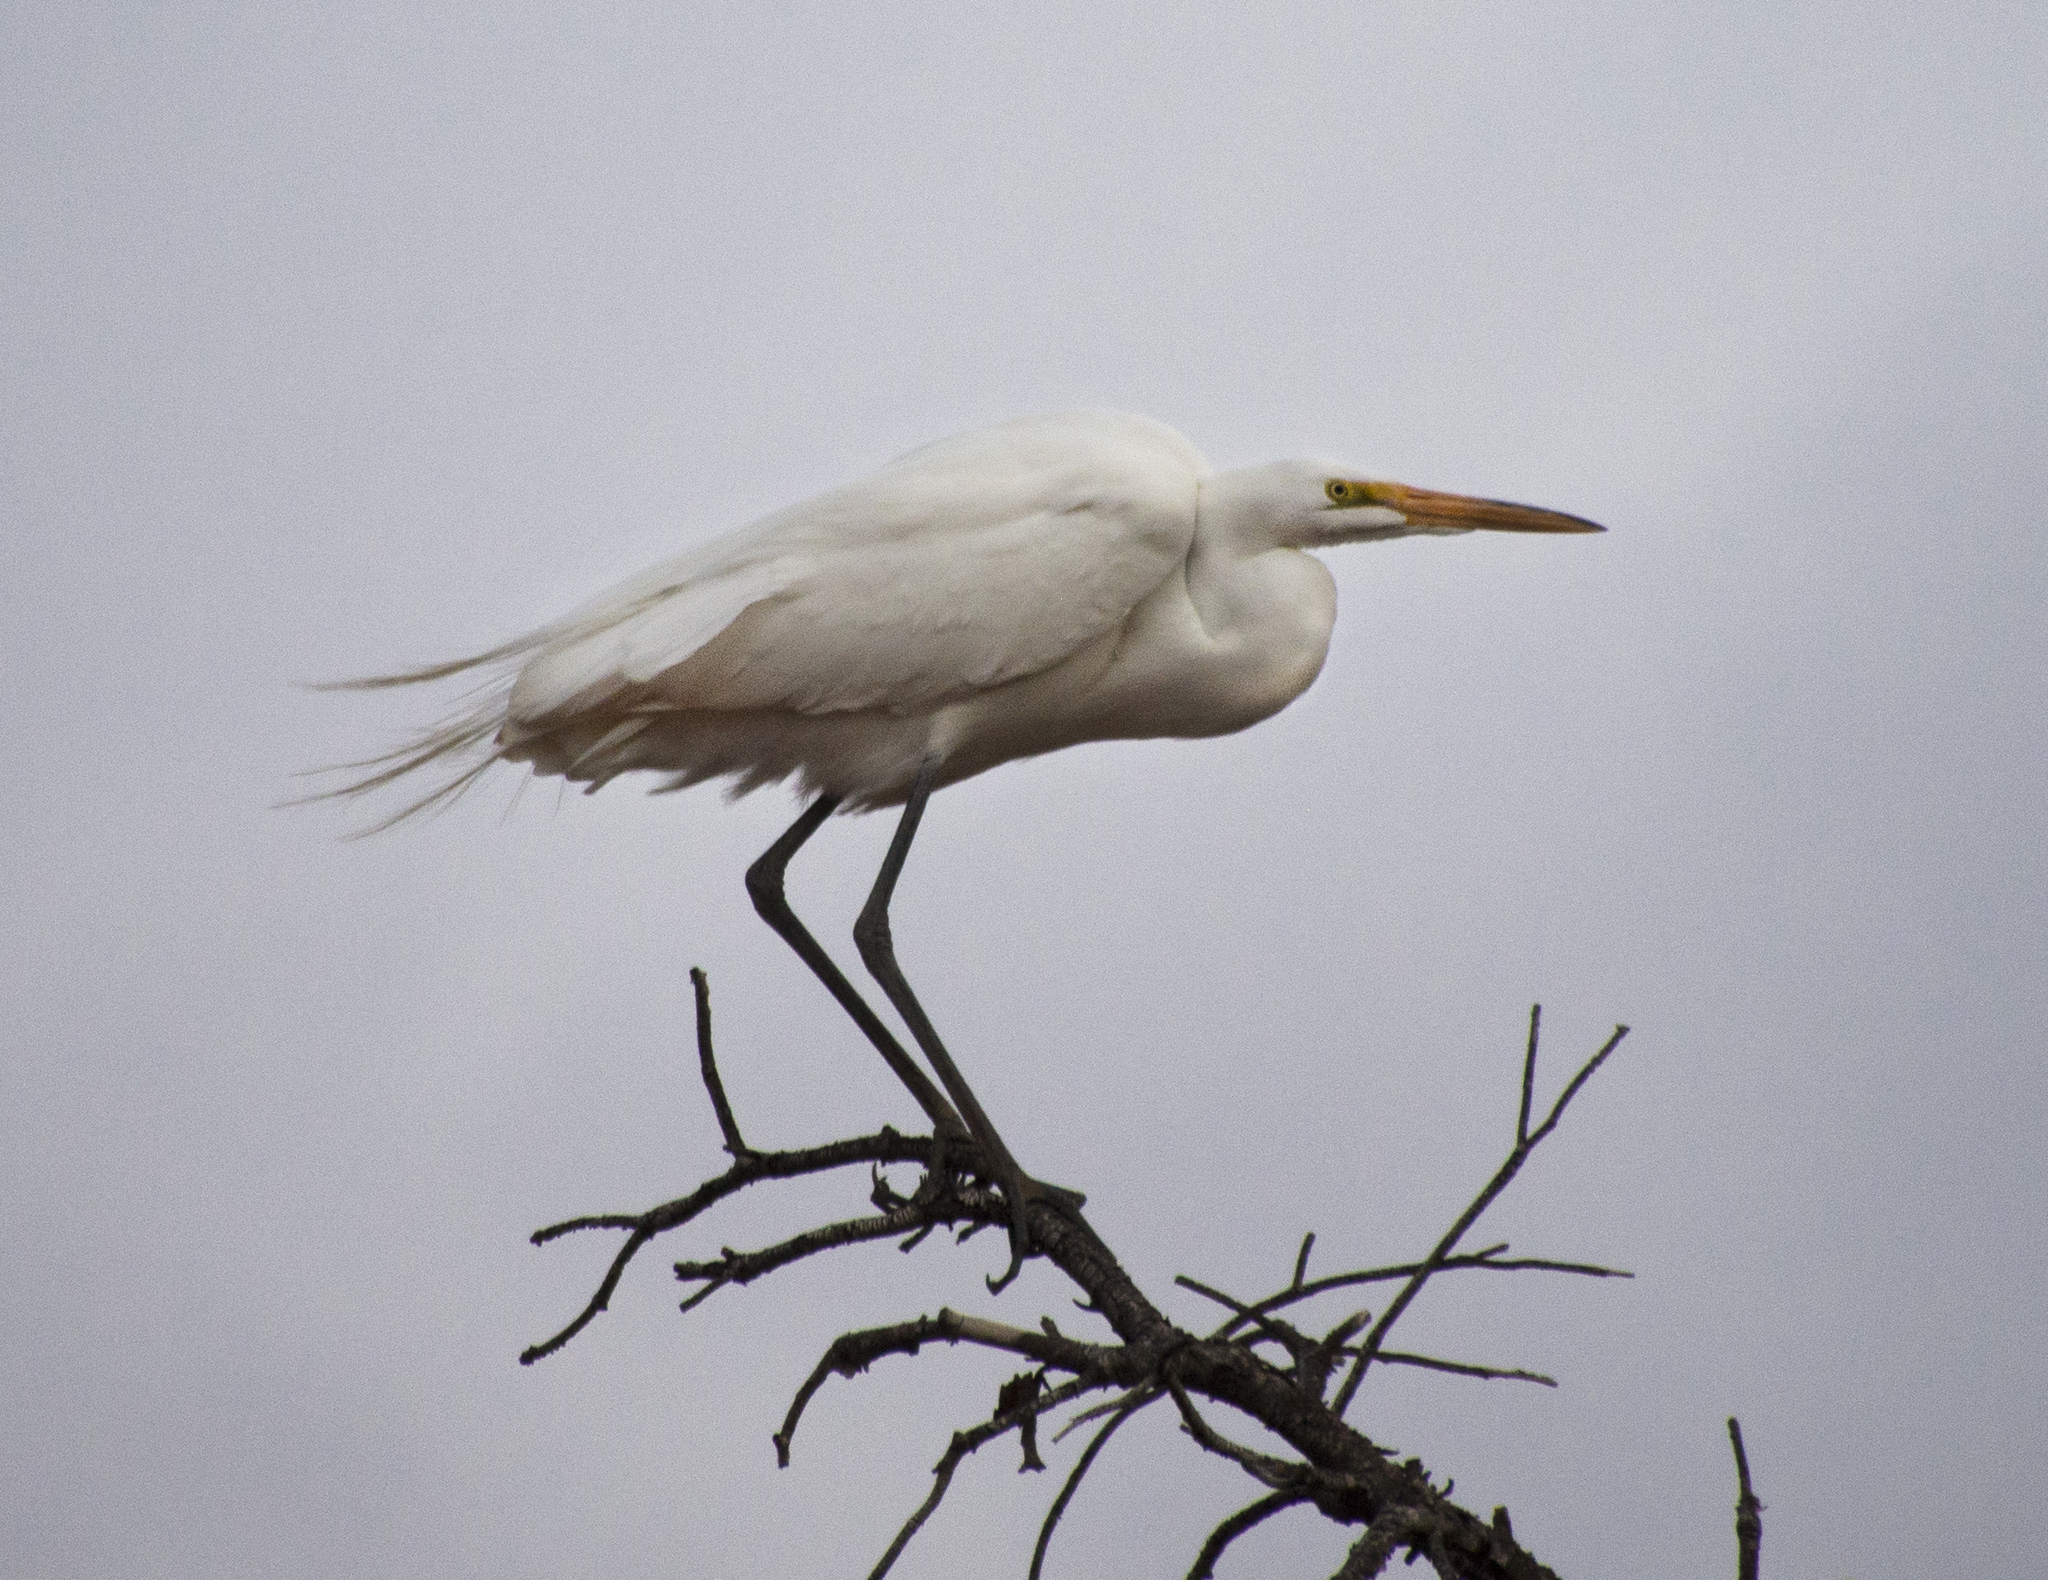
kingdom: Animalia
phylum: Chordata
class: Aves
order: Pelecaniformes
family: Ardeidae
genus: Ardea
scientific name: Ardea alba
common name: Great egret
